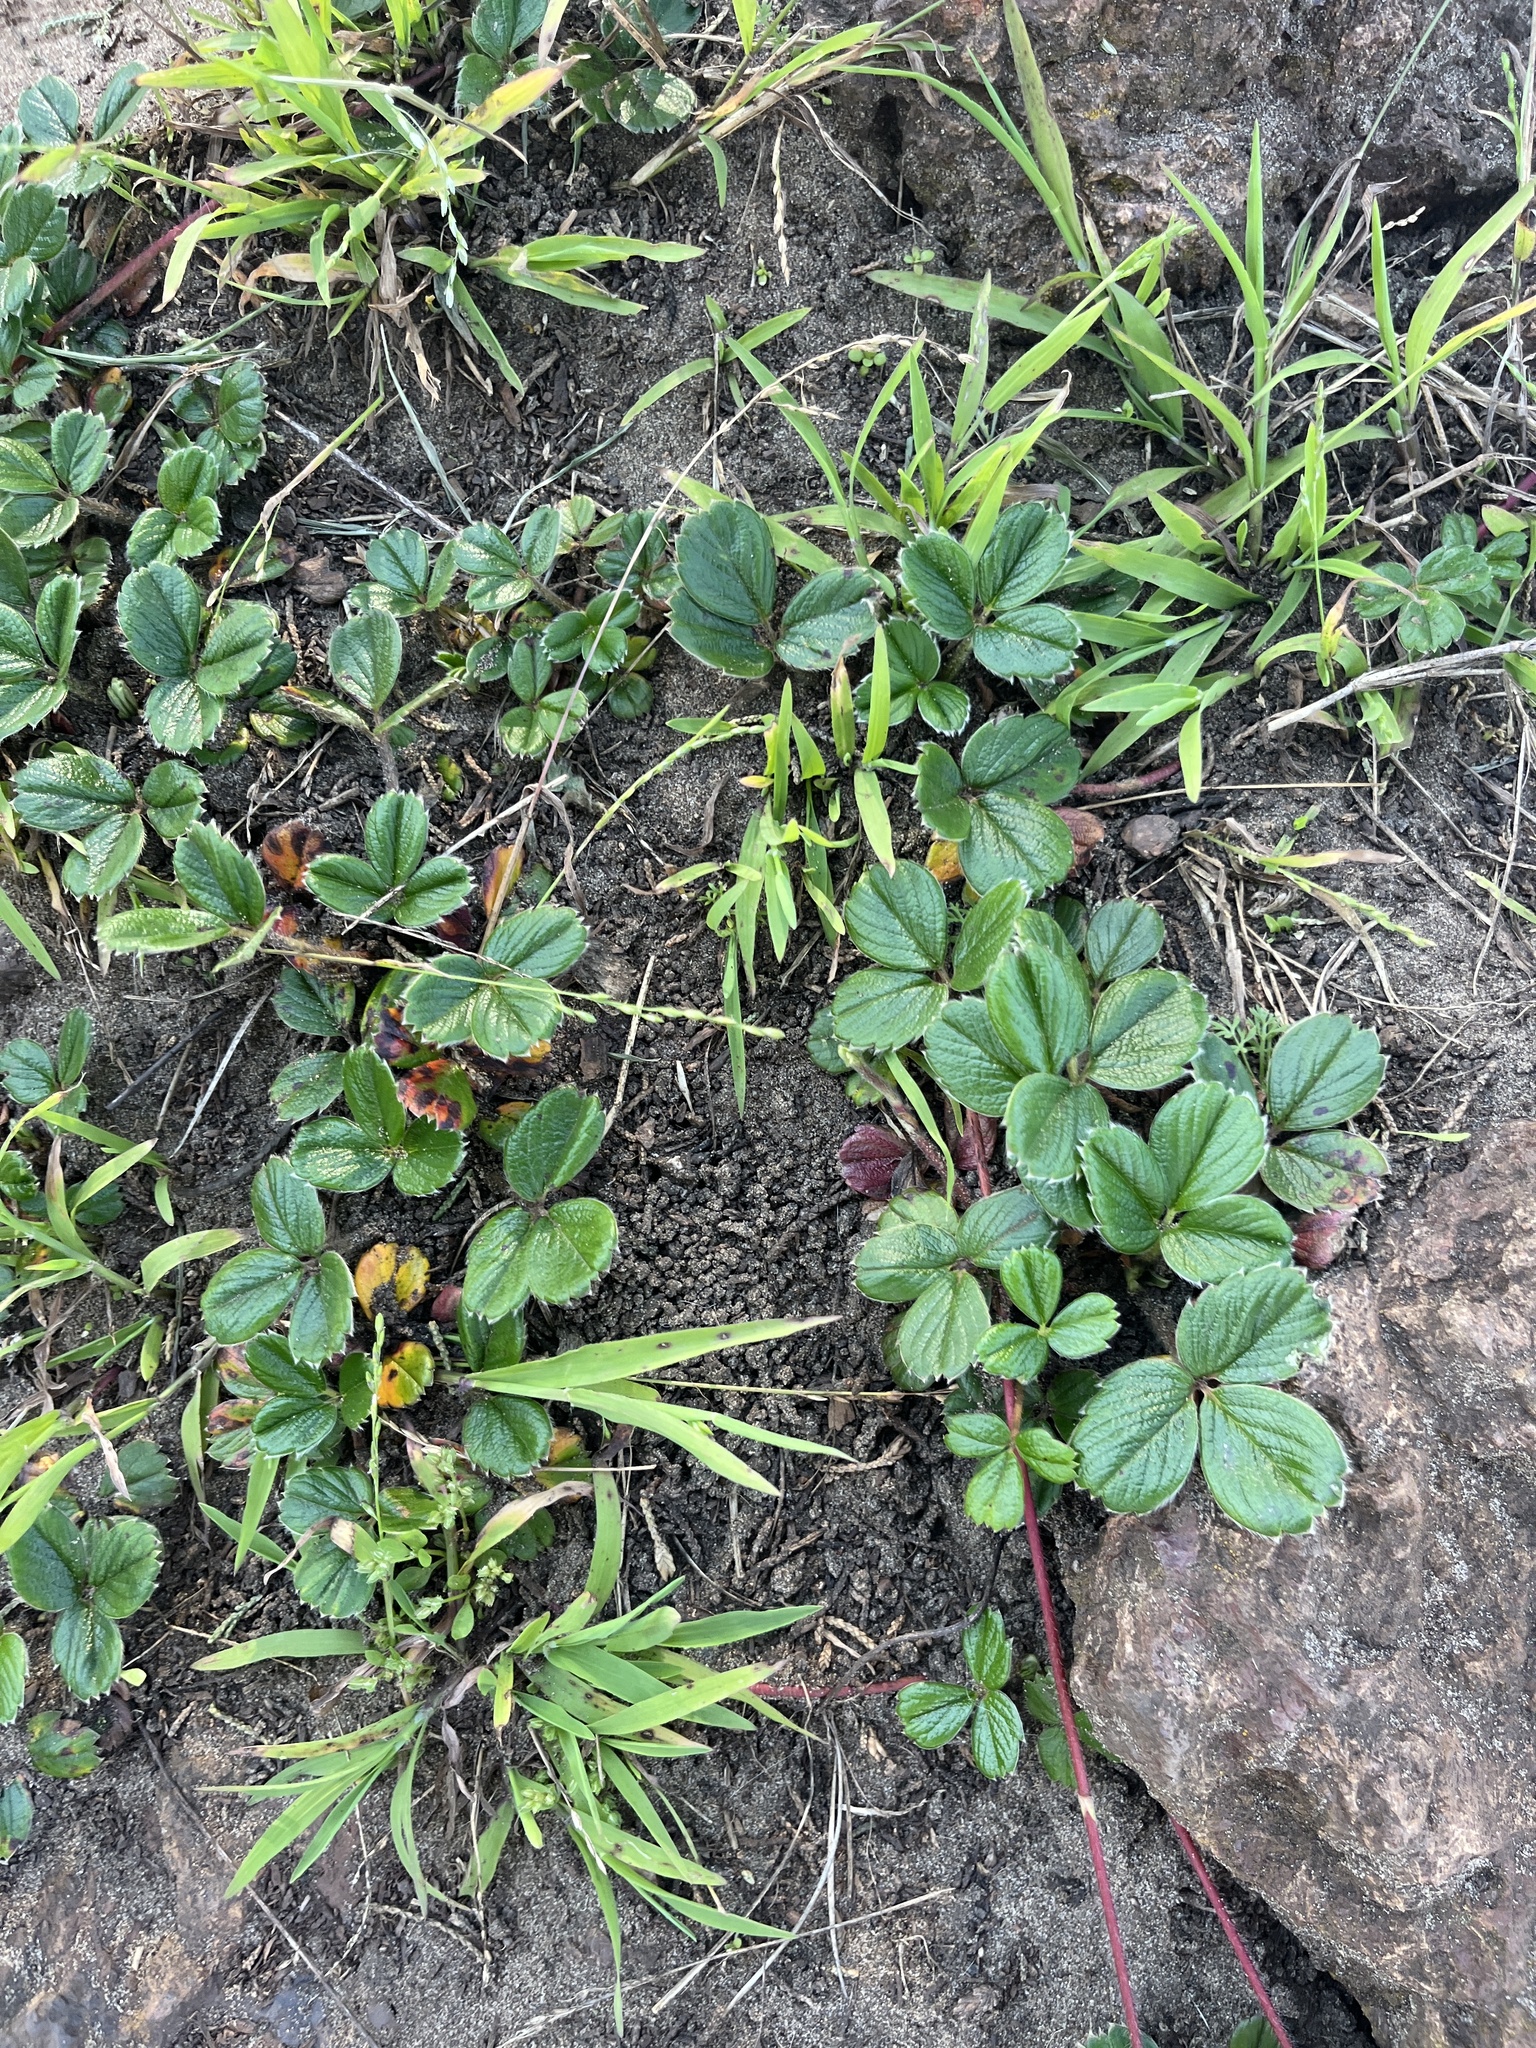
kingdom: Plantae
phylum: Tracheophyta
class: Magnoliopsida
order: Rosales
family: Rosaceae
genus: Fragaria
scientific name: Fragaria chiloensis
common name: Beach strawberry
